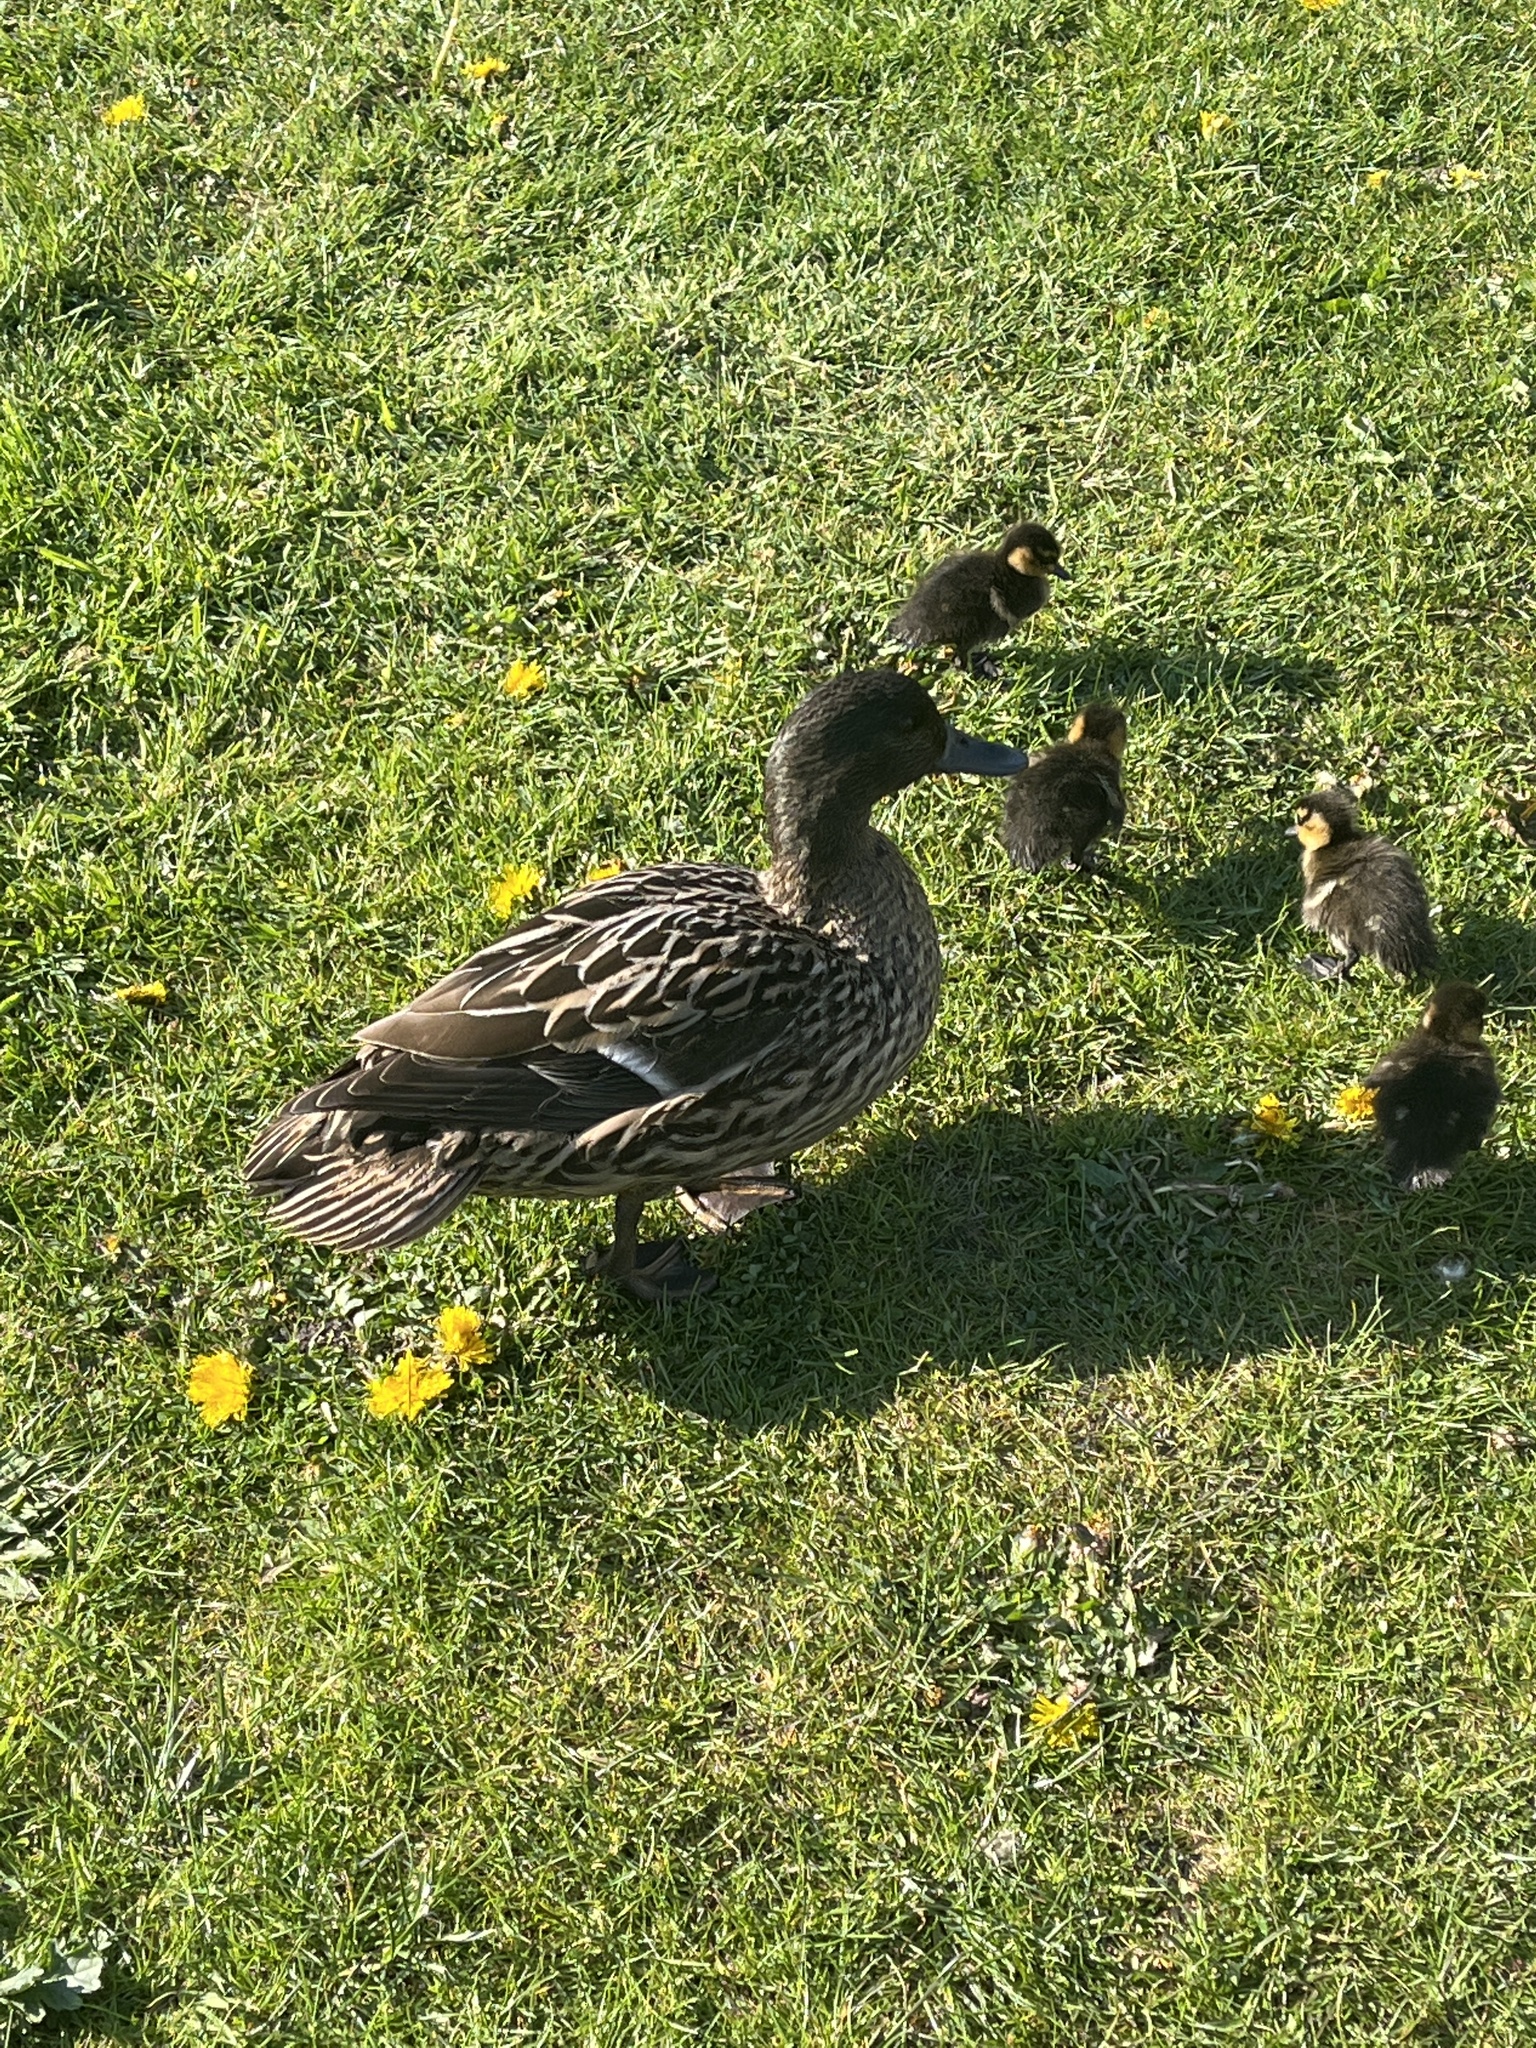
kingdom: Animalia
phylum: Chordata
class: Aves
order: Anseriformes
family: Anatidae
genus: Anas
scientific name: Anas platyrhynchos
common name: Mallard
